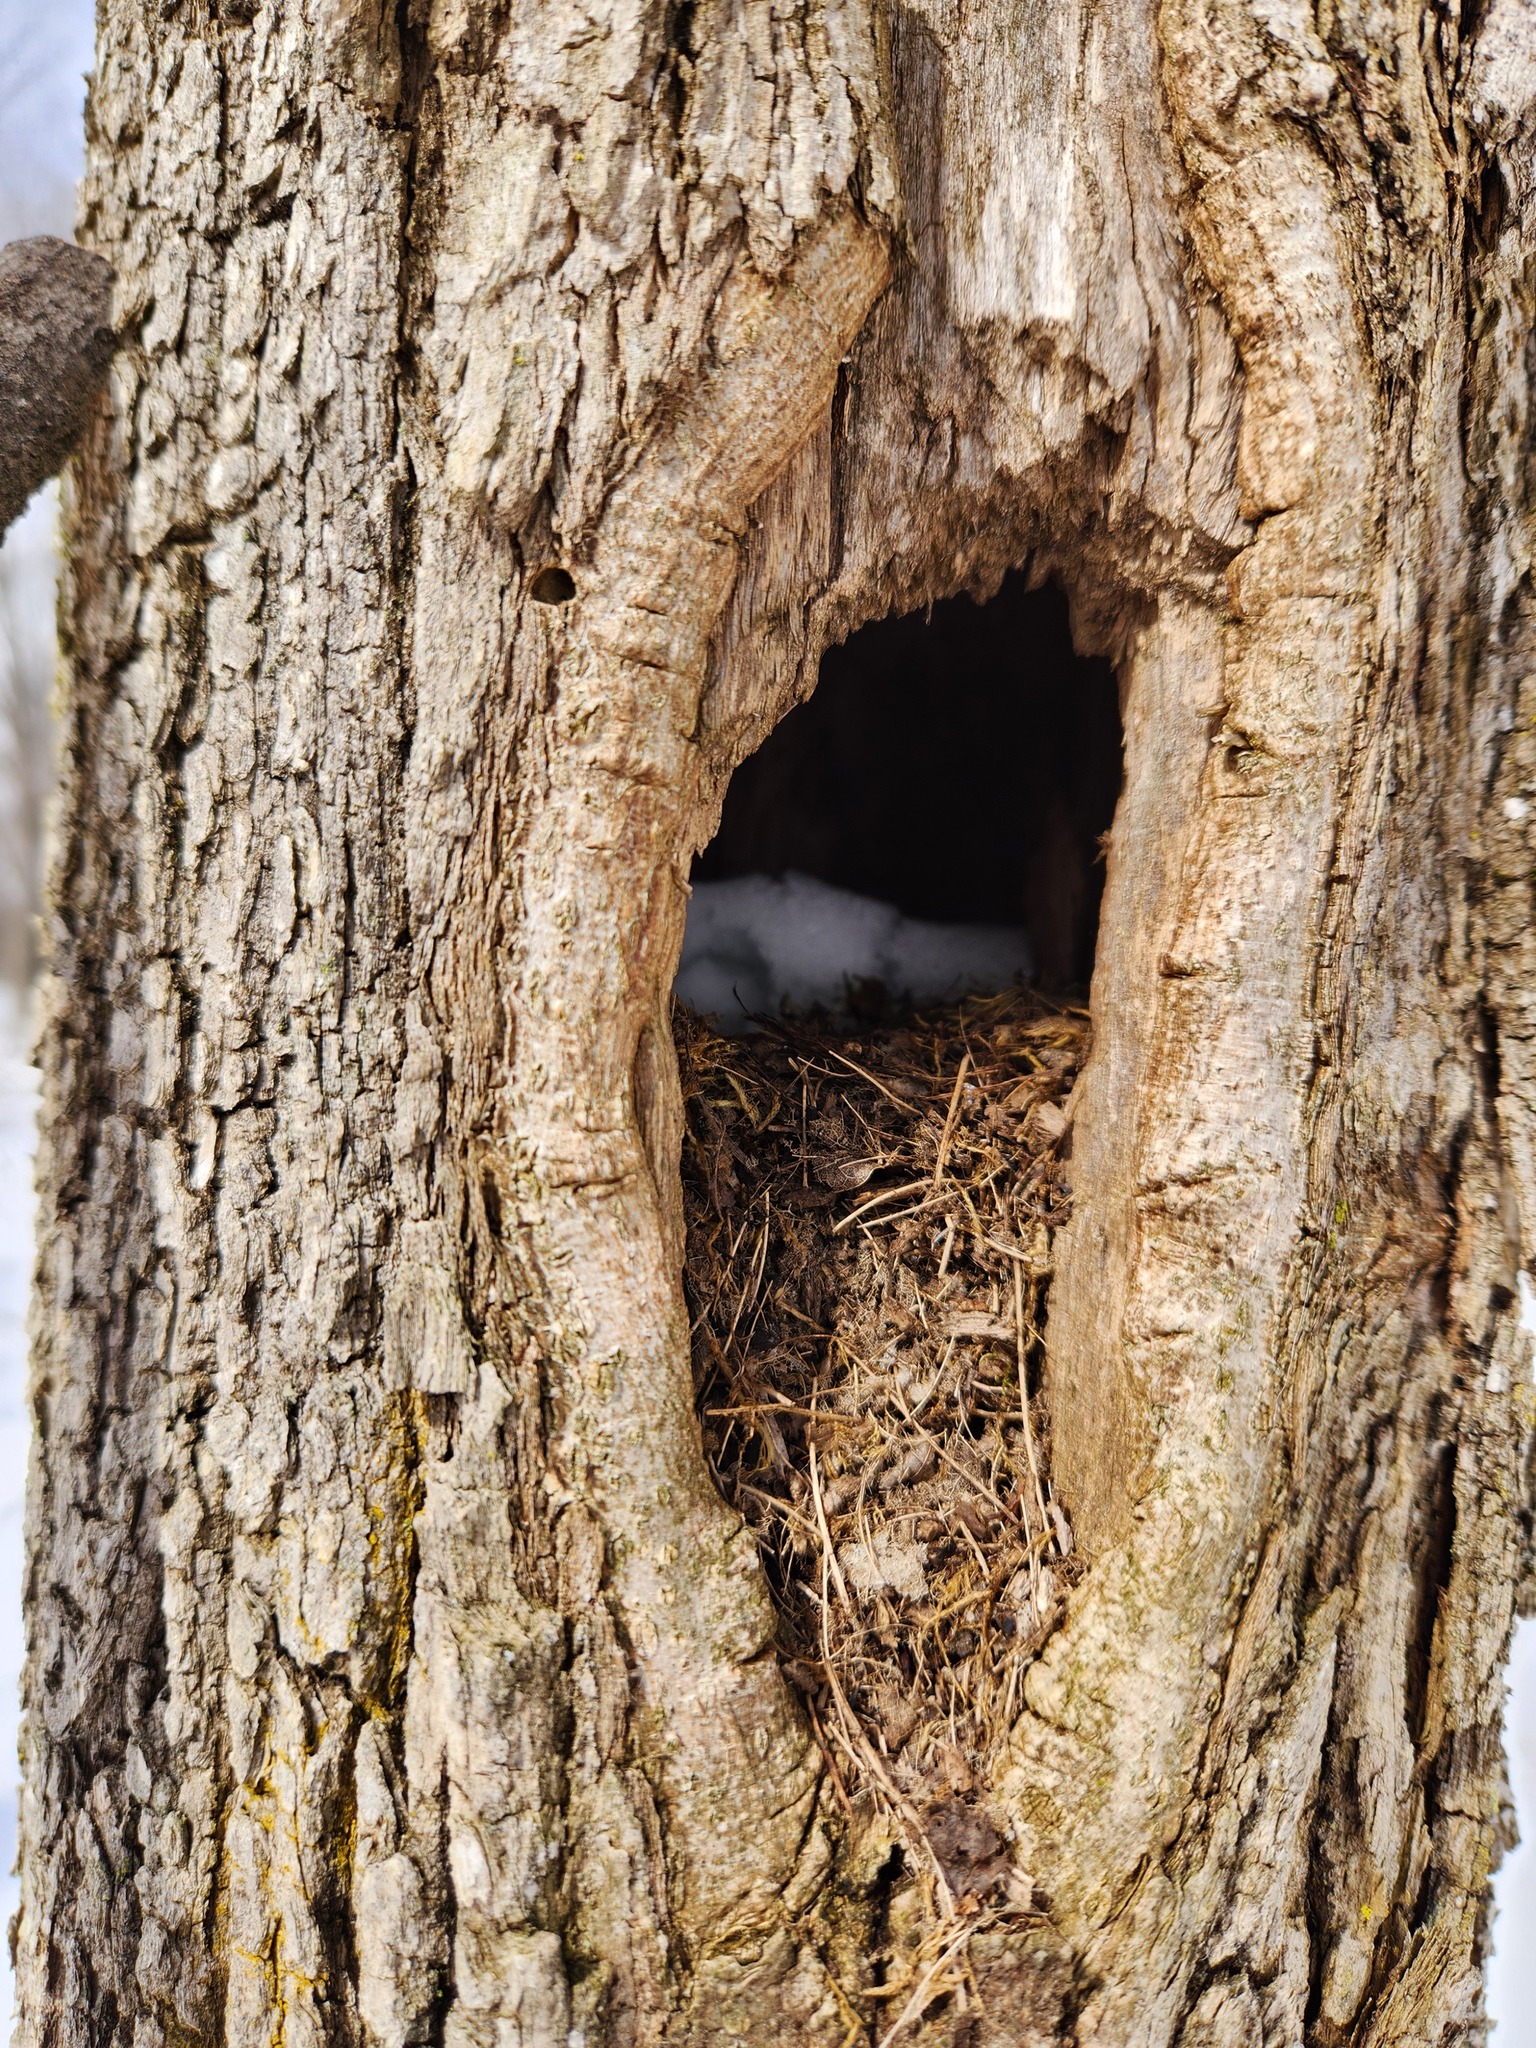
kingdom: Animalia
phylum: Chordata
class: Aves
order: Piciformes
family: Picidae
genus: Dryocopus
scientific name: Dryocopus pileatus
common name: Pileated woodpecker
